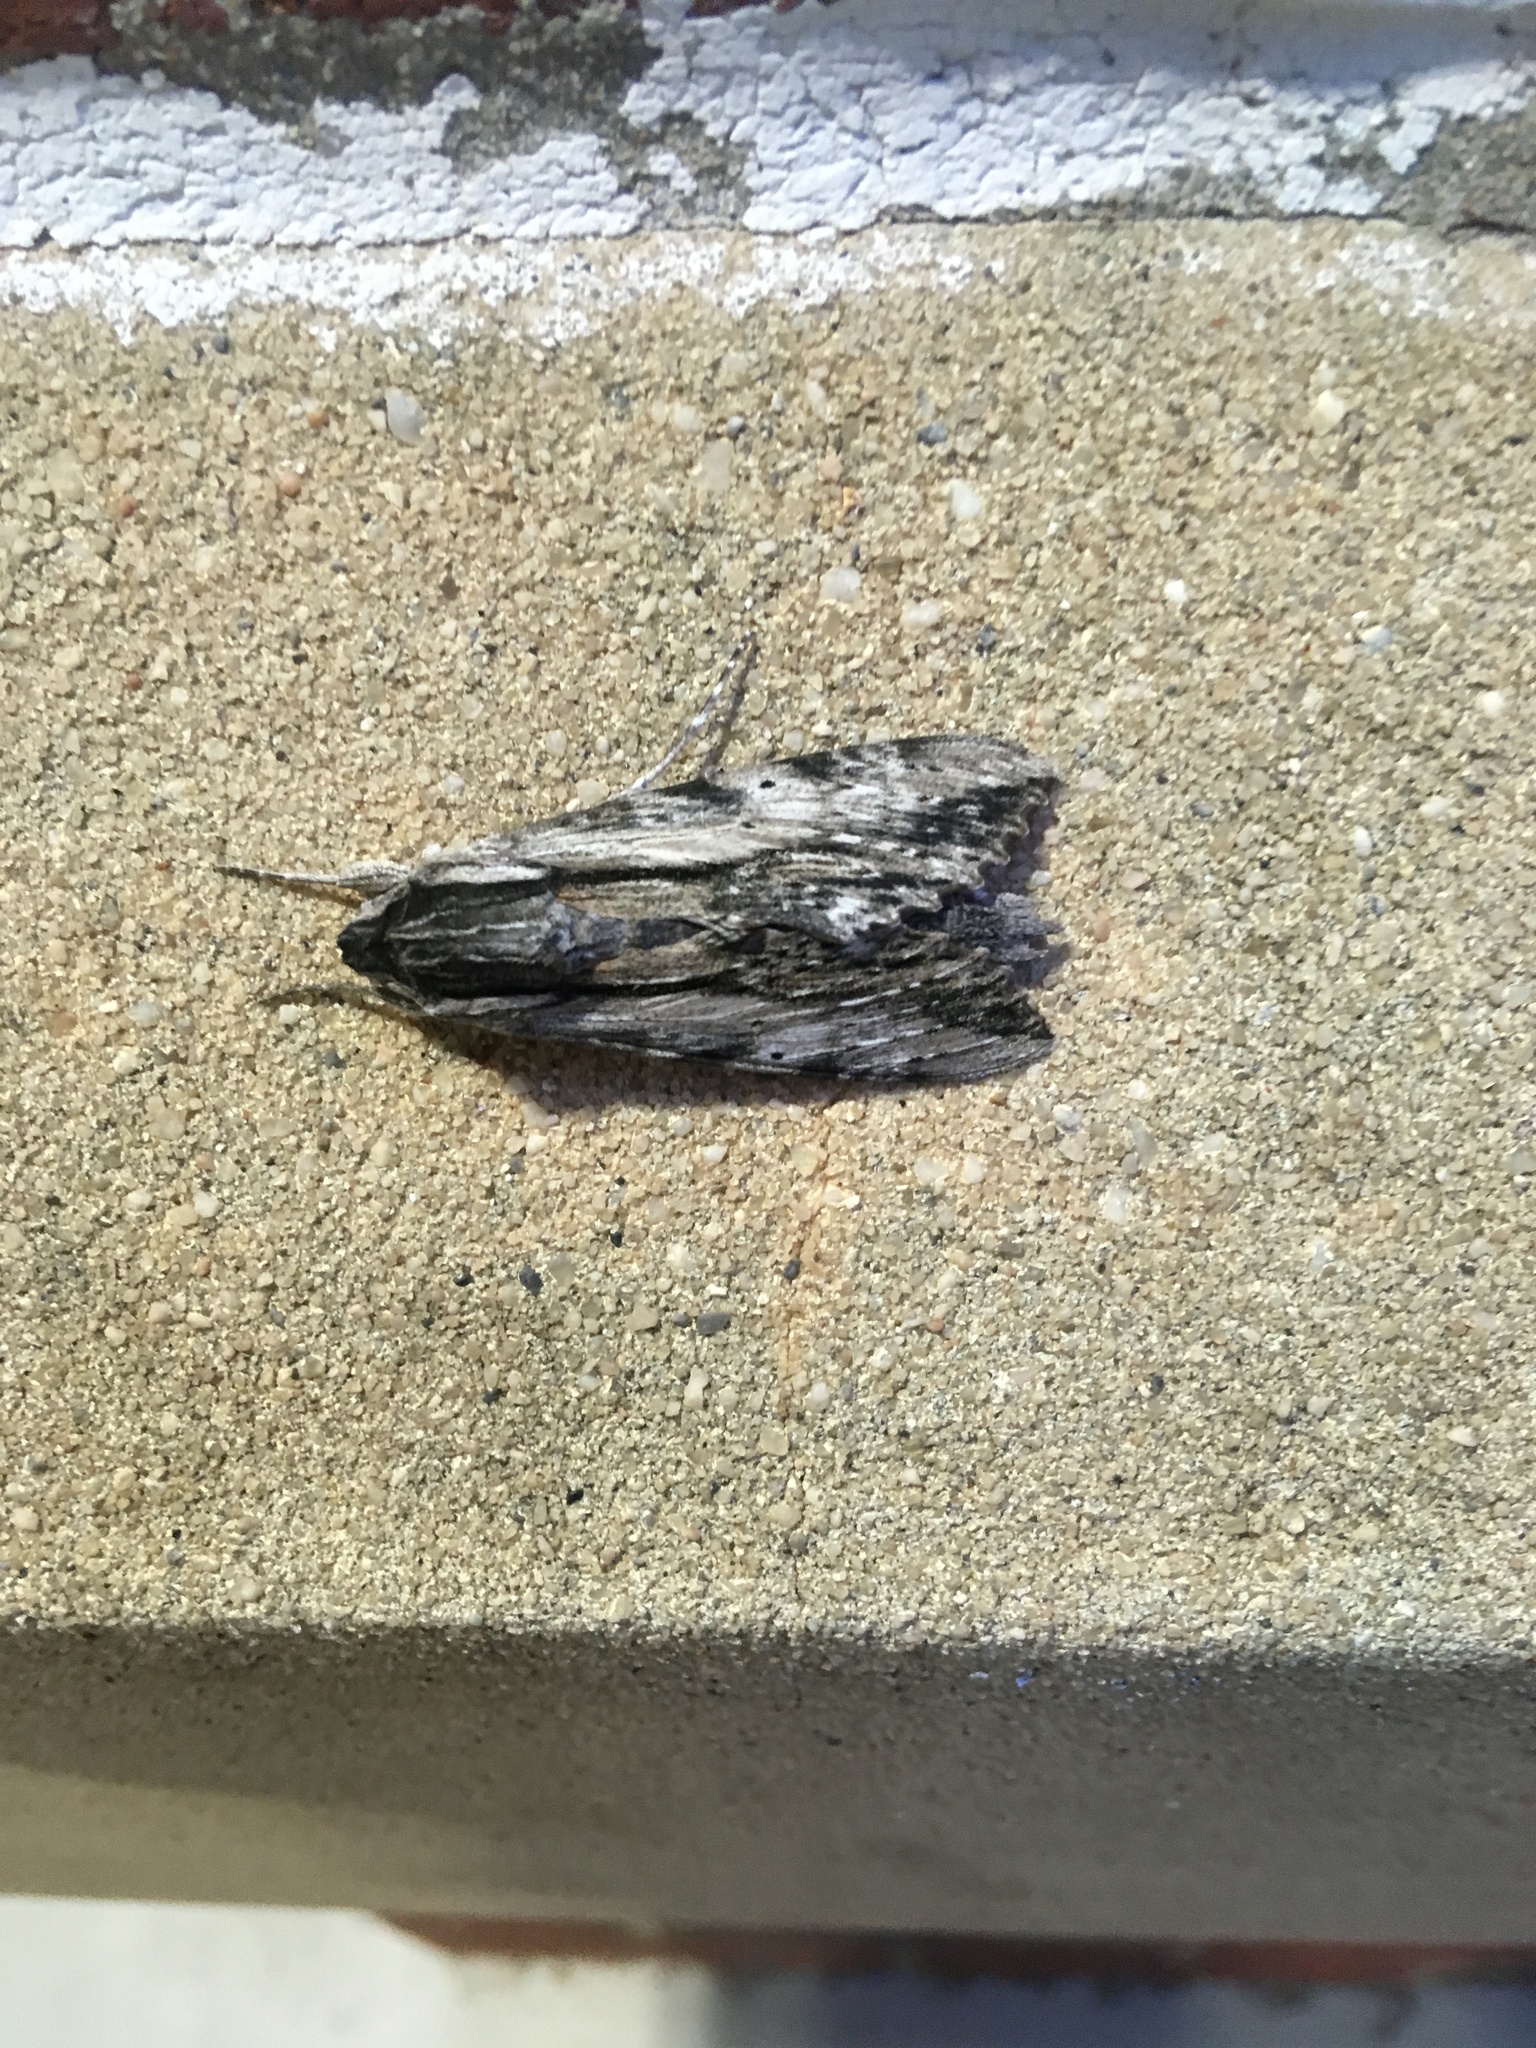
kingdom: Animalia
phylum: Arthropoda
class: Insecta
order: Lepidoptera
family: Sphingidae
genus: Erinnyis
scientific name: Erinnyis obscura
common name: Obscure sphinx
